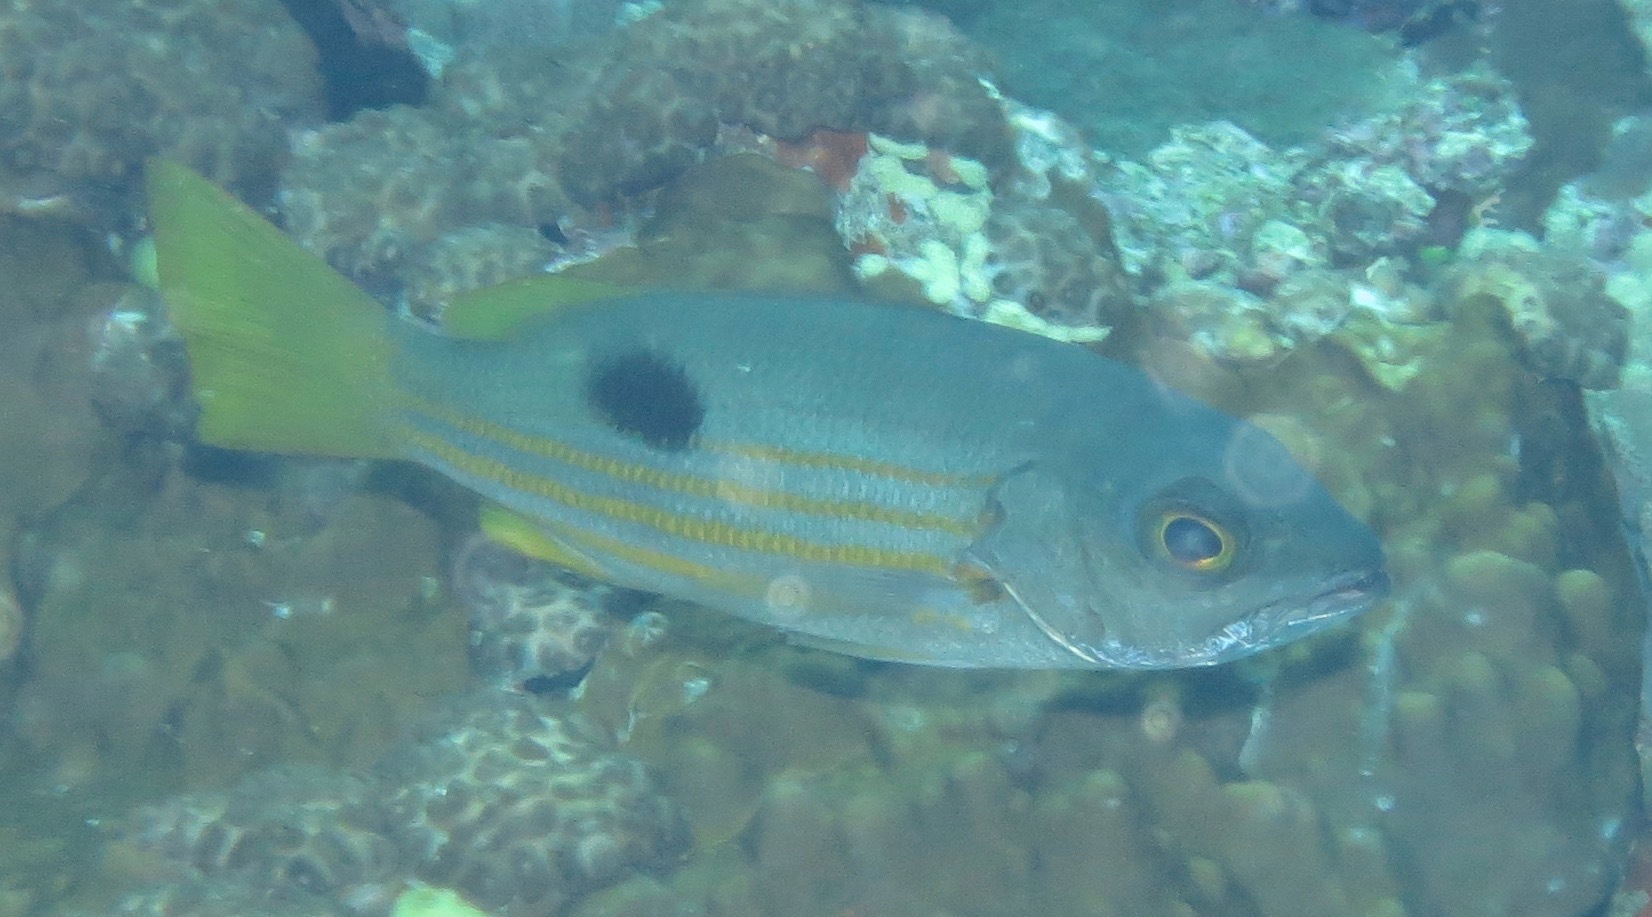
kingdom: Animalia
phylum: Chordata
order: Perciformes
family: Lutjanidae
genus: Lutjanus
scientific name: Lutjanus ehrenbergii
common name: Blackspot snapper
